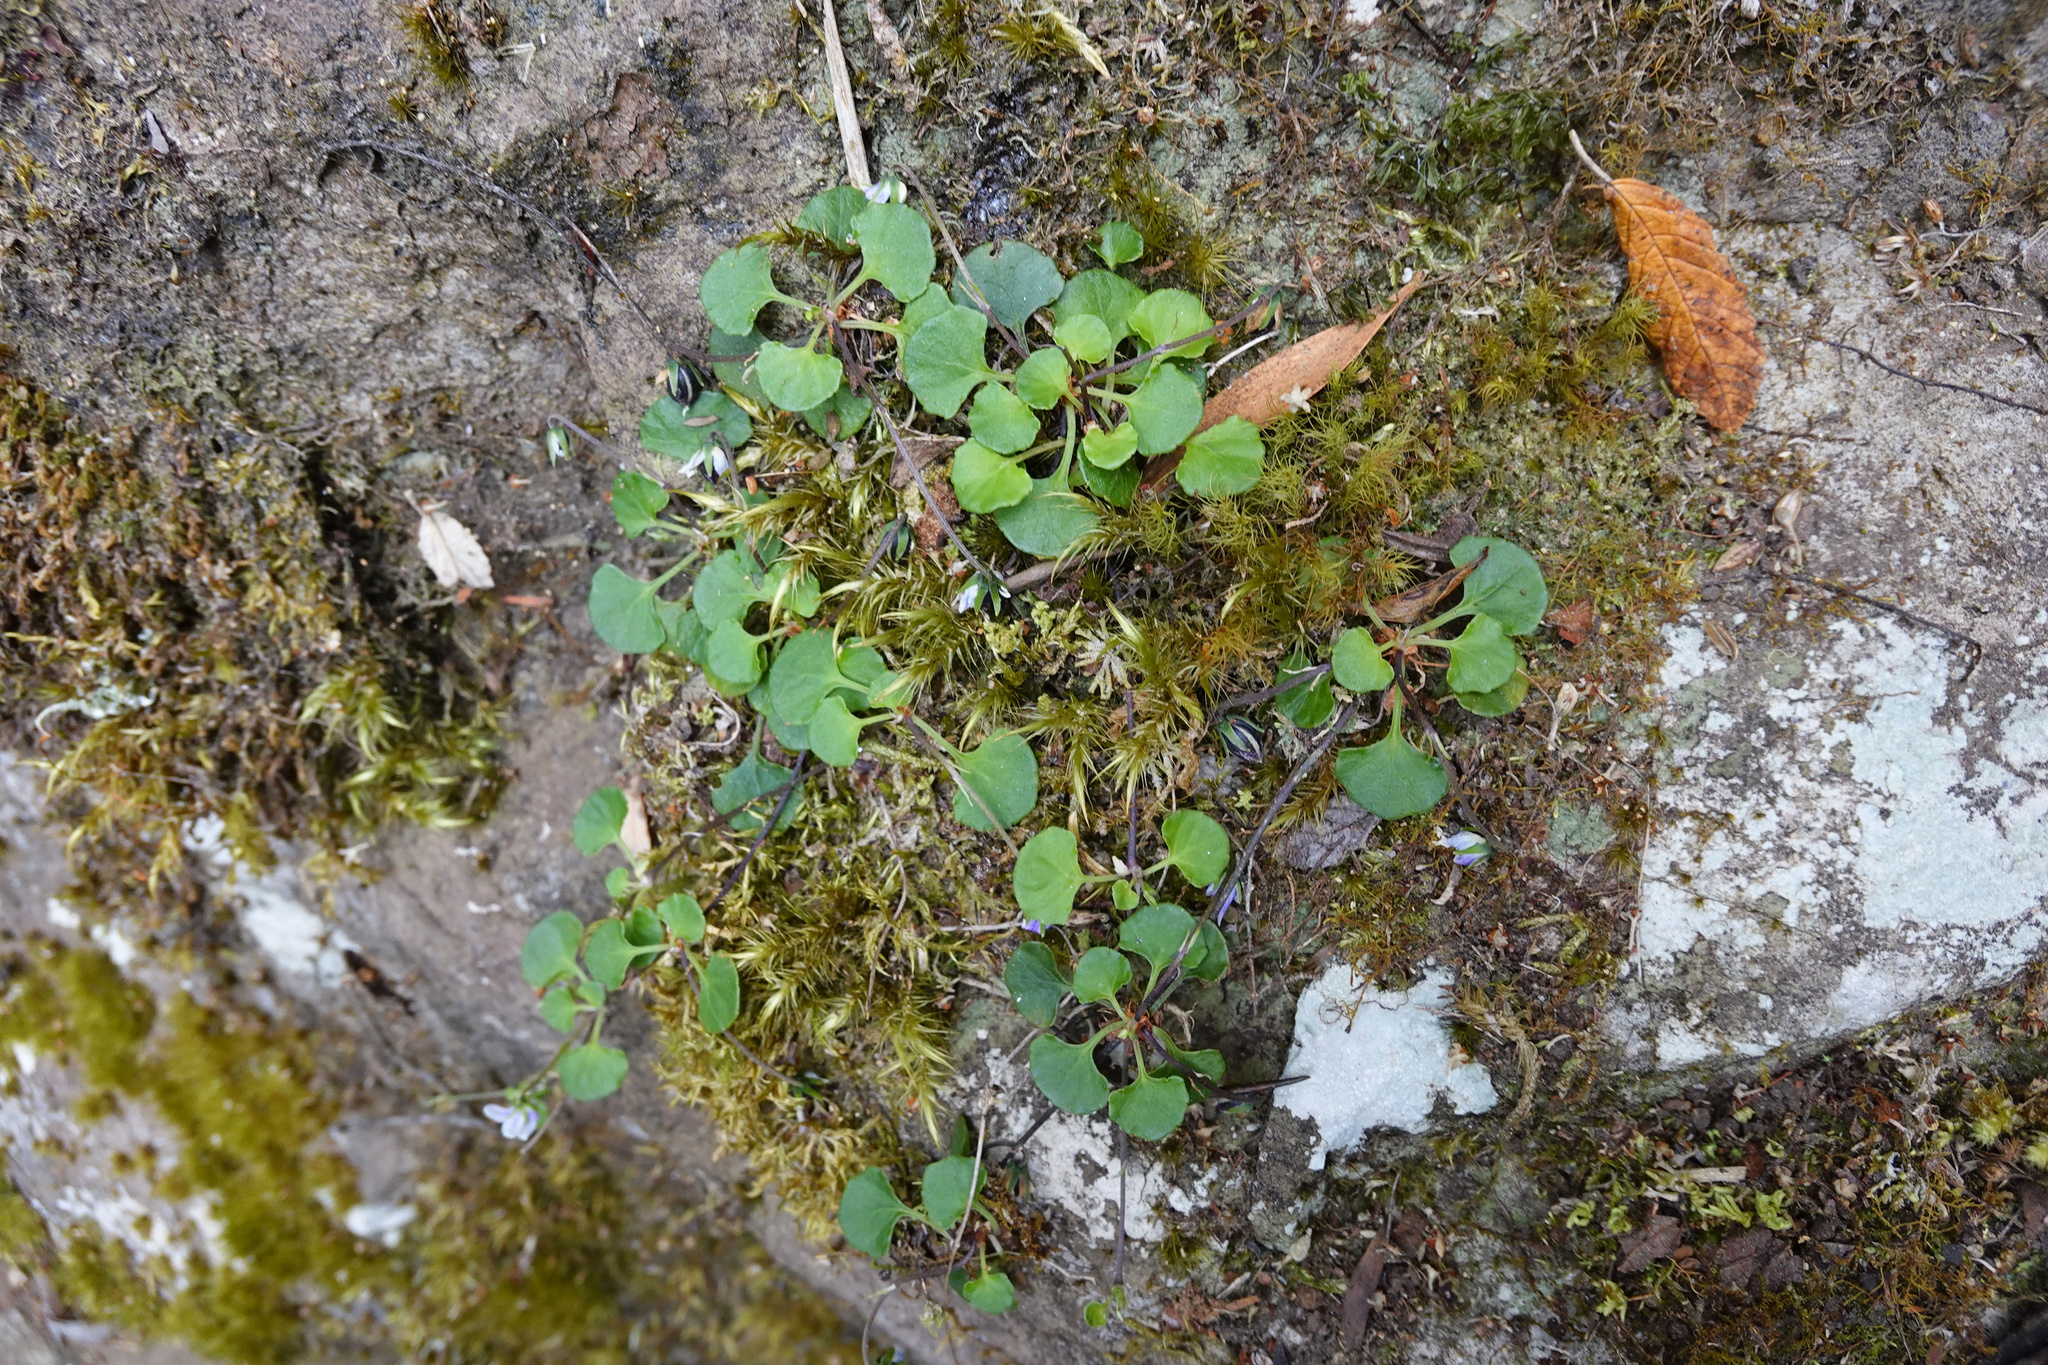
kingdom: Plantae
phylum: Tracheophyta
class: Magnoliopsida
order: Malpighiales
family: Violaceae
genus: Viola
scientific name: Viola hederacea
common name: Australian violet
